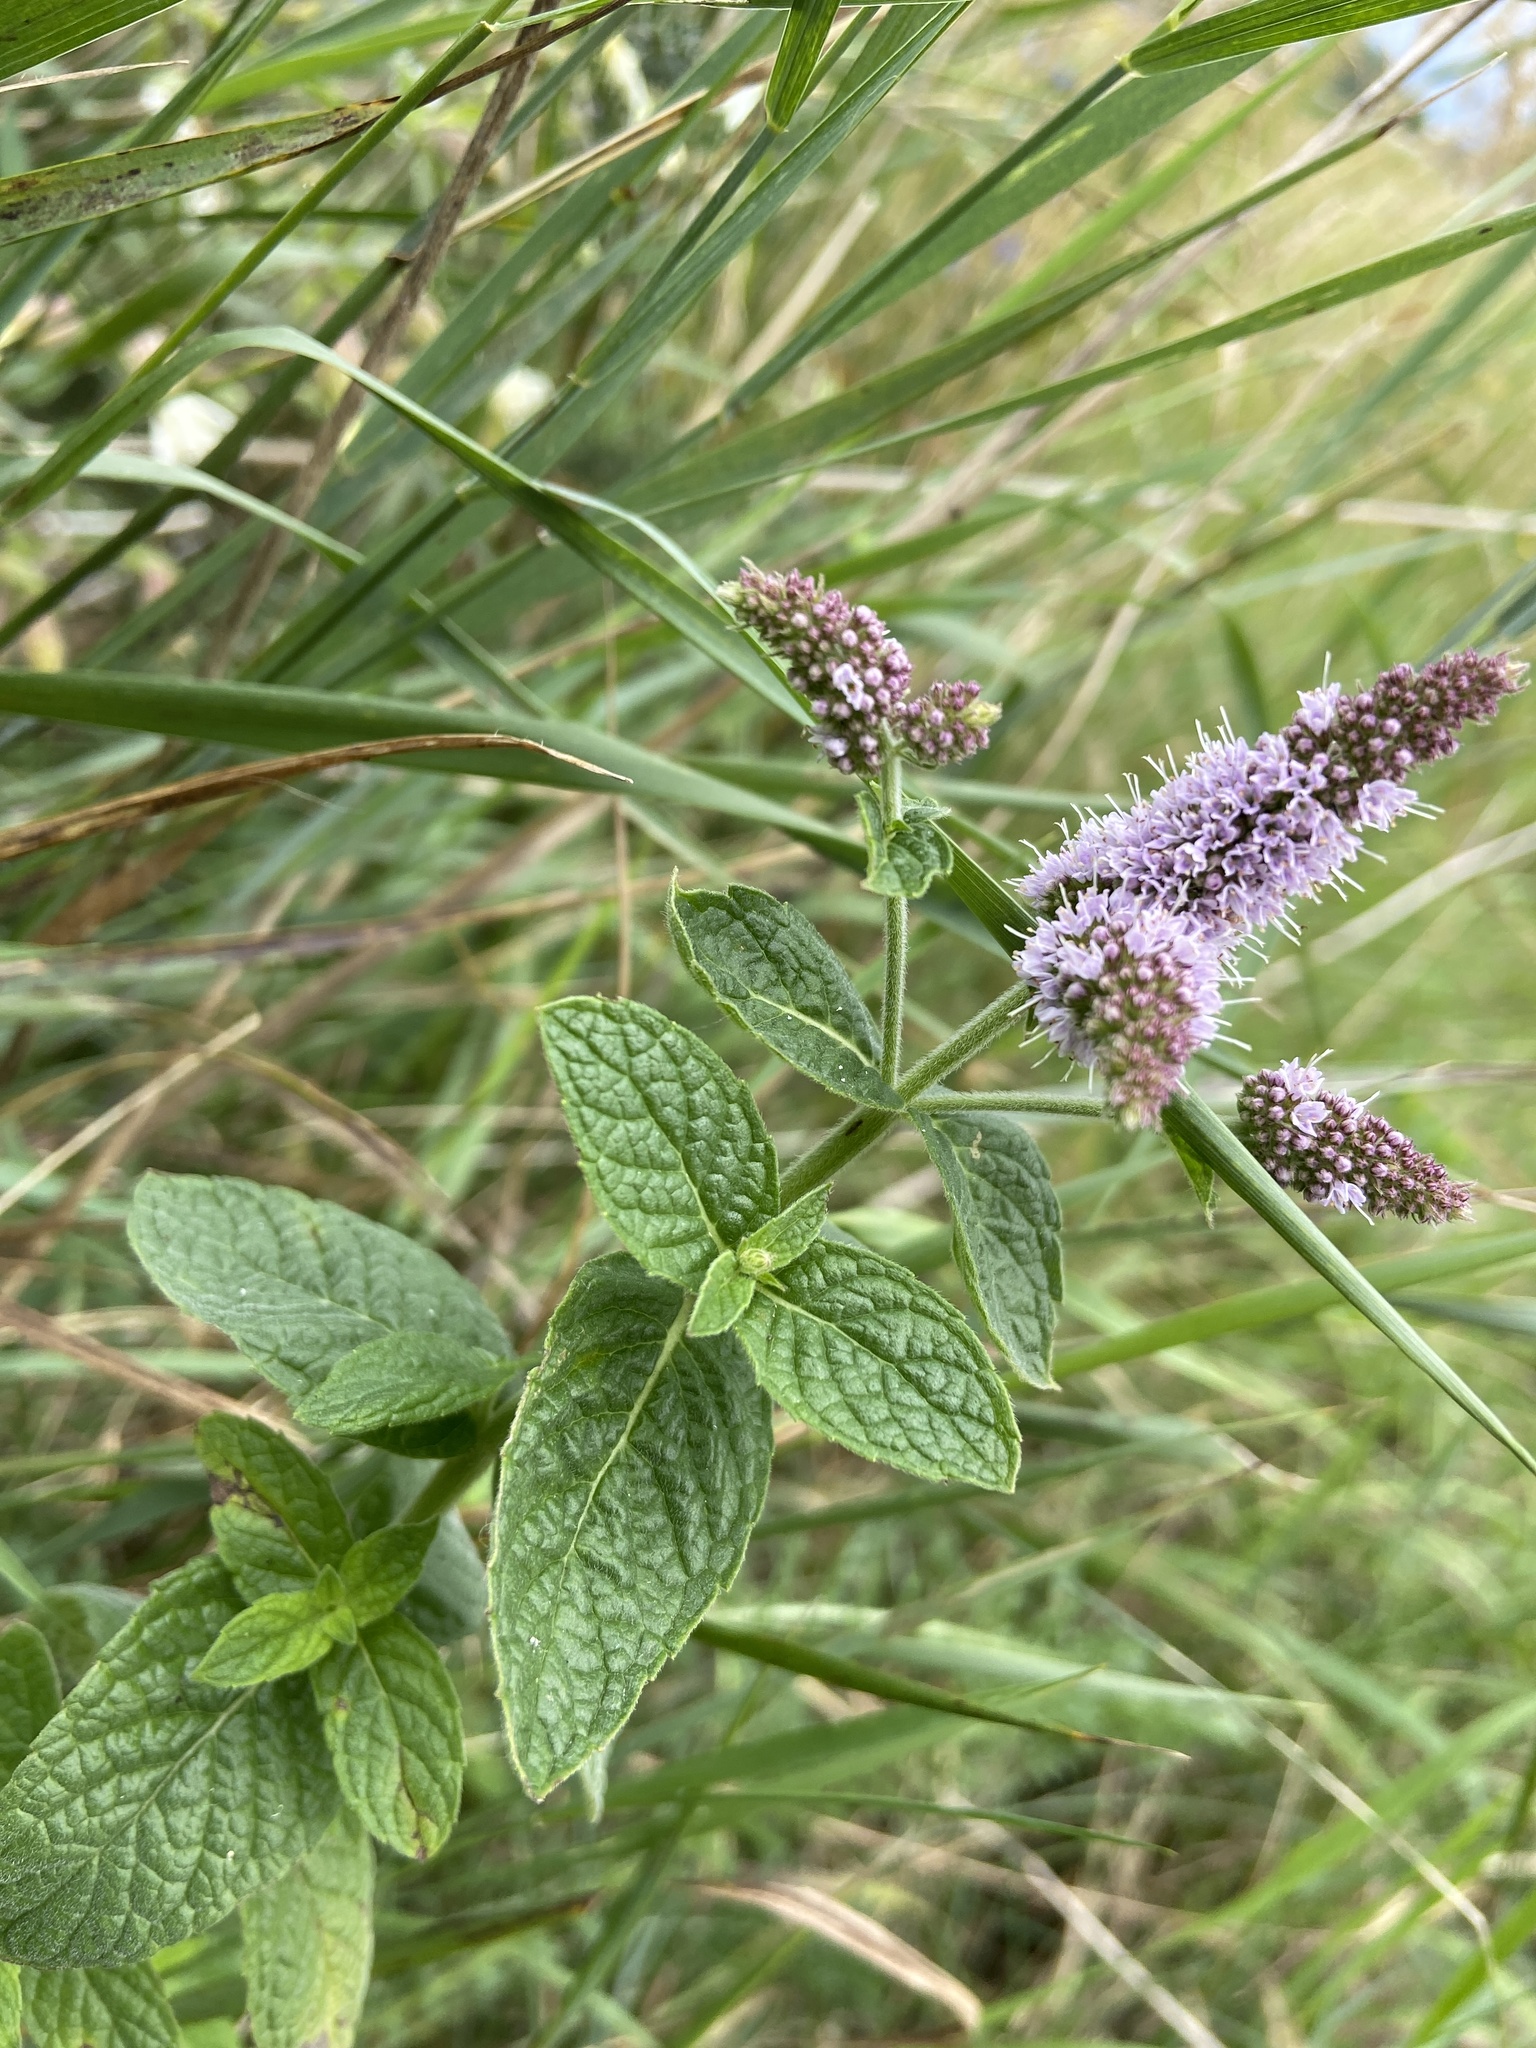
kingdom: Plantae
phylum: Tracheophyta
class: Magnoliopsida
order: Lamiales
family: Lamiaceae
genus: Mentha
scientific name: Mentha longifolia
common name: Horse mint
